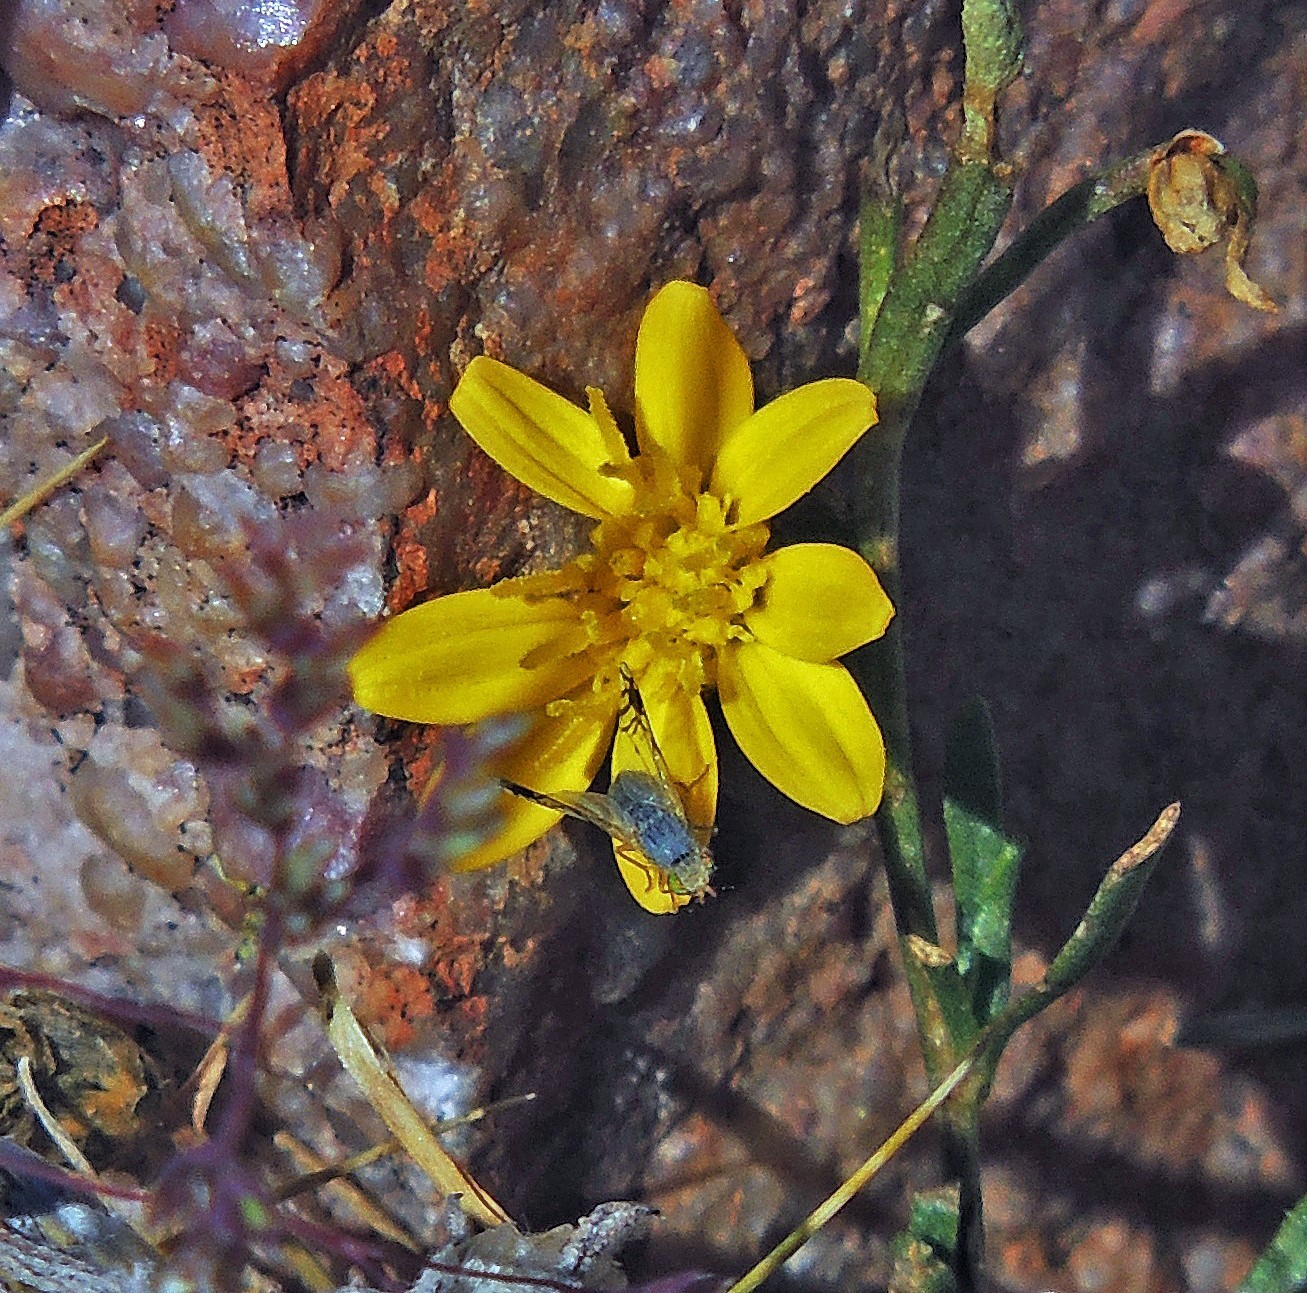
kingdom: Plantae
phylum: Tracheophyta
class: Magnoliopsida
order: Asterales
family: Asteraceae
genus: Gutierrezia
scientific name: Gutierrezia mandonii
